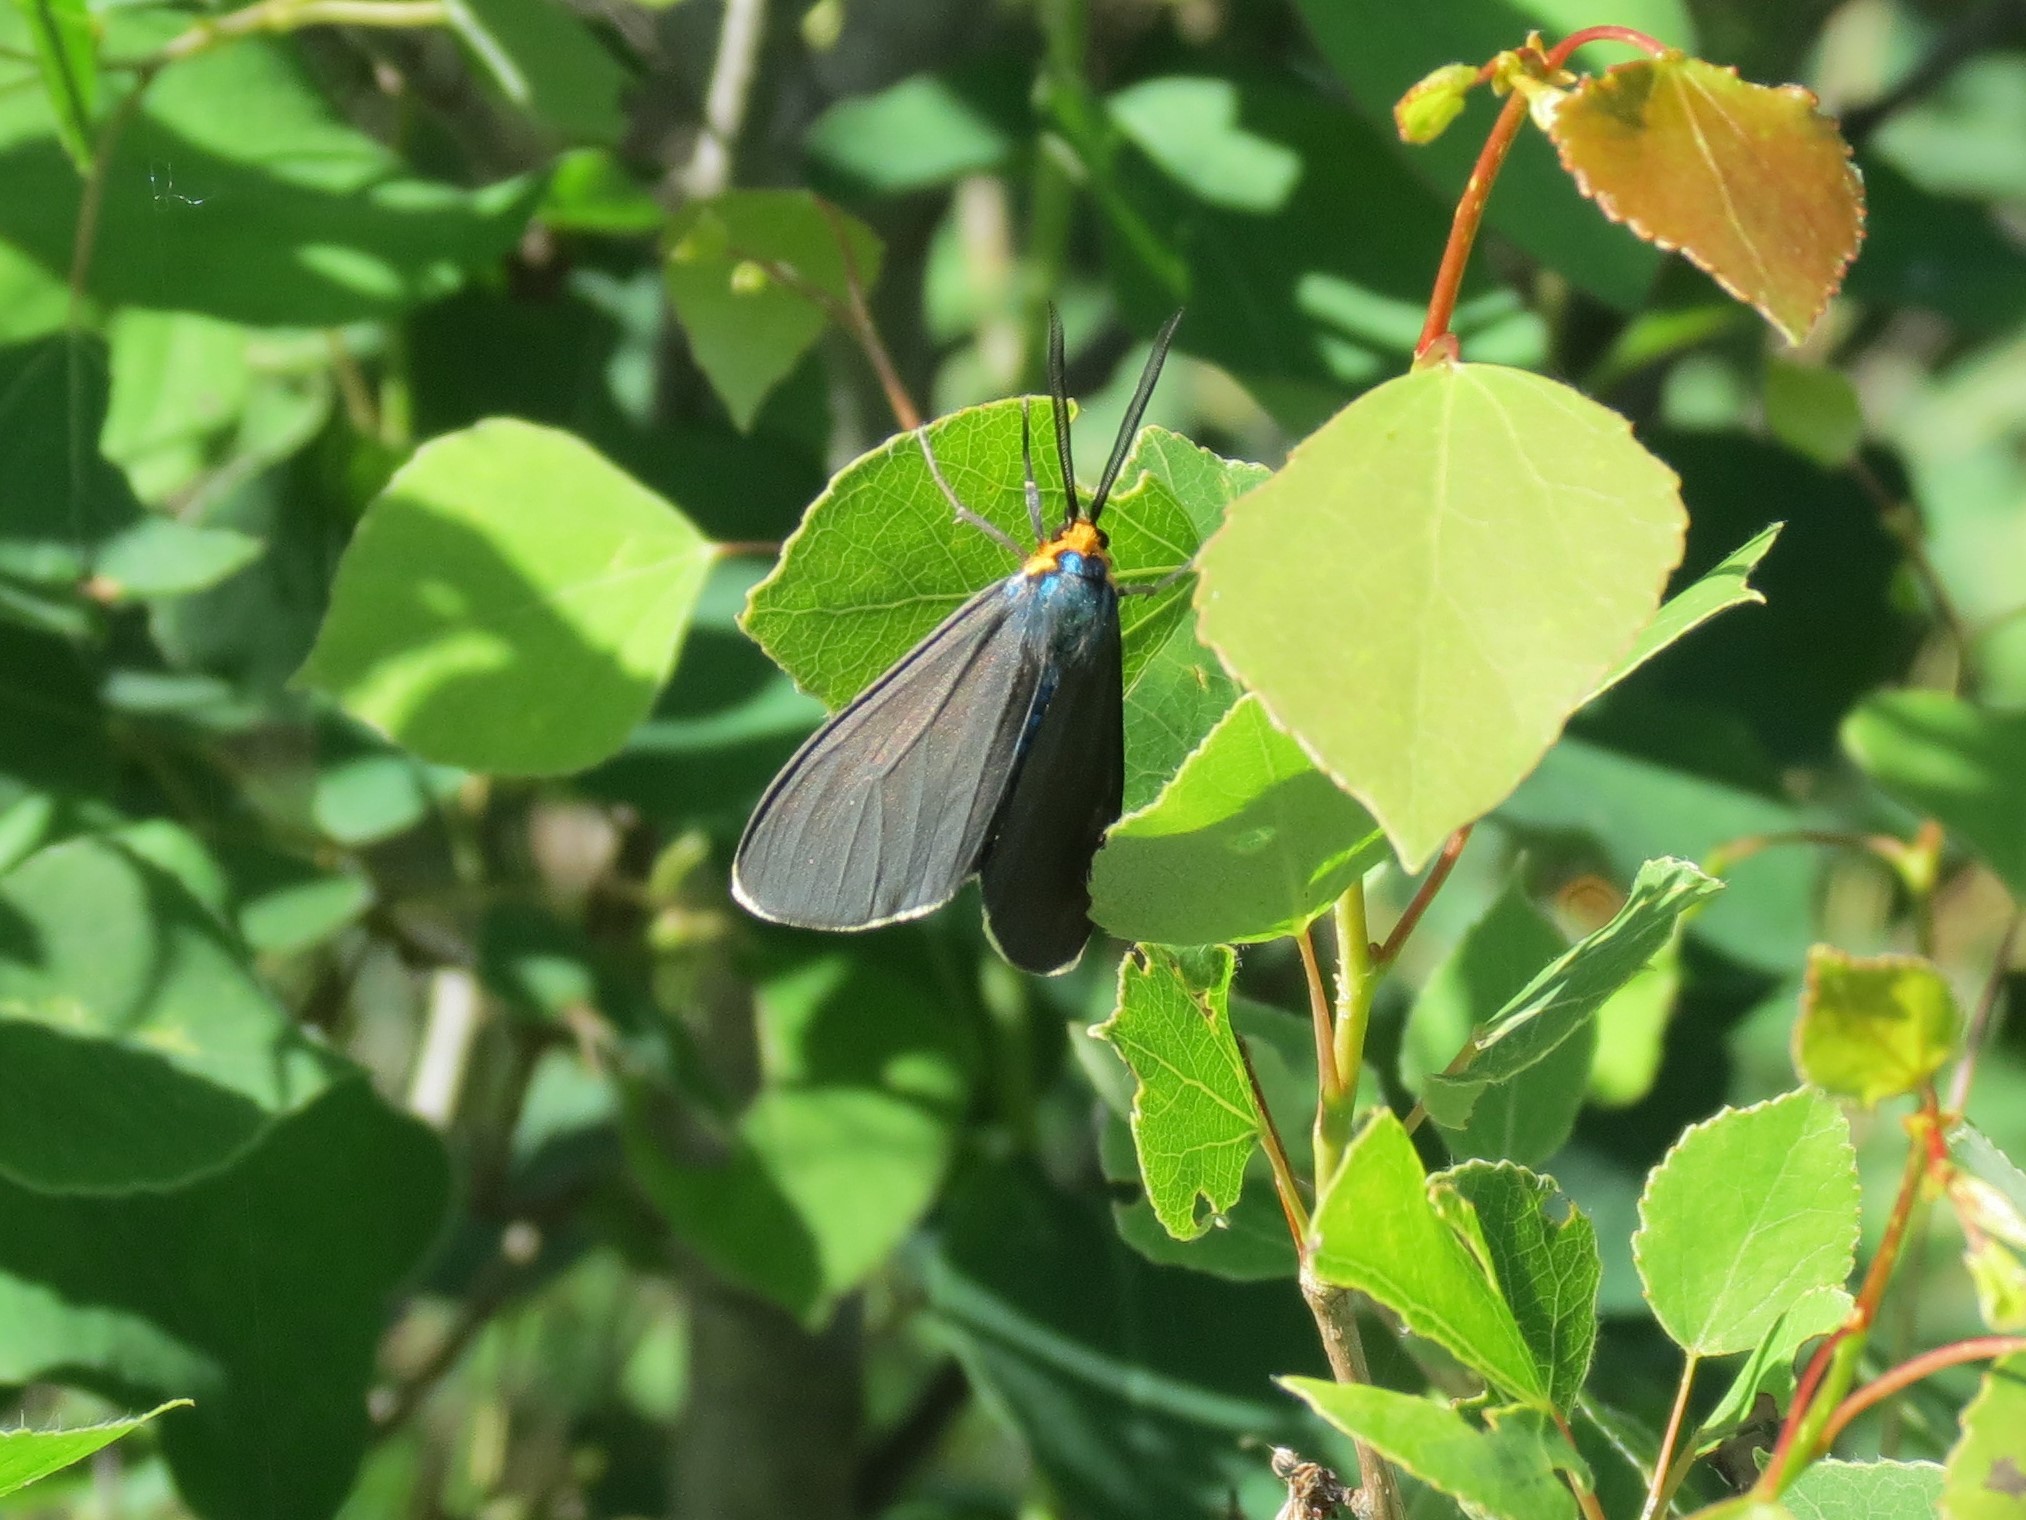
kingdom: Animalia
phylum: Arthropoda
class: Insecta
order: Lepidoptera
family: Erebidae
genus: Ctenucha
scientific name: Ctenucha virginica
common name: Virginia ctenucha moth
